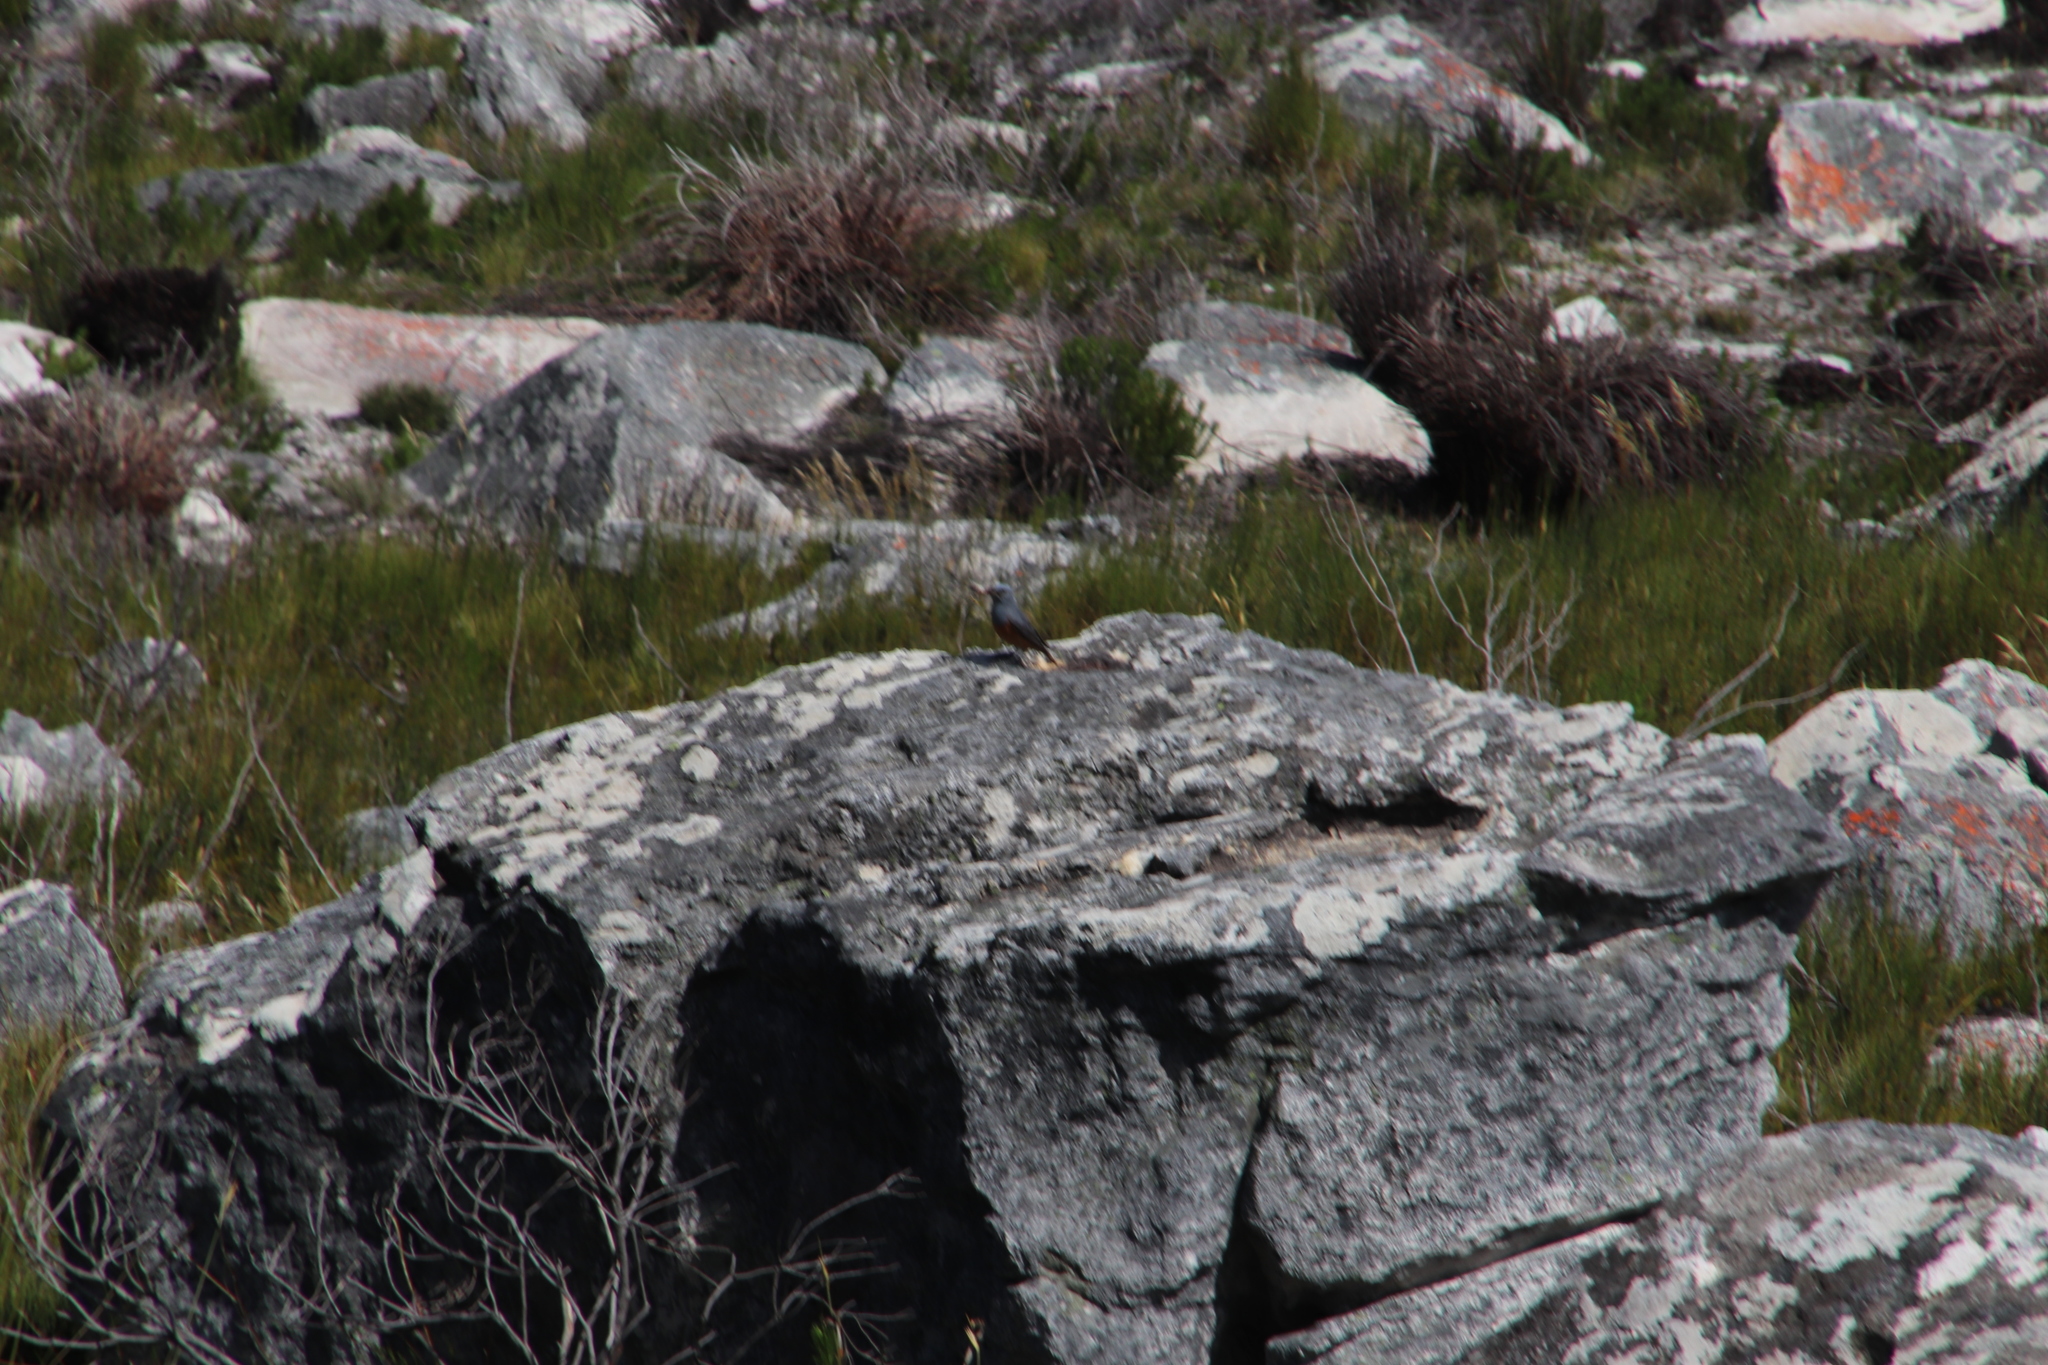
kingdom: Animalia
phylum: Chordata
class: Aves
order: Passeriformes
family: Muscicapidae
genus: Monticola
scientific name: Monticola explorator
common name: Sentinel rock thrush
